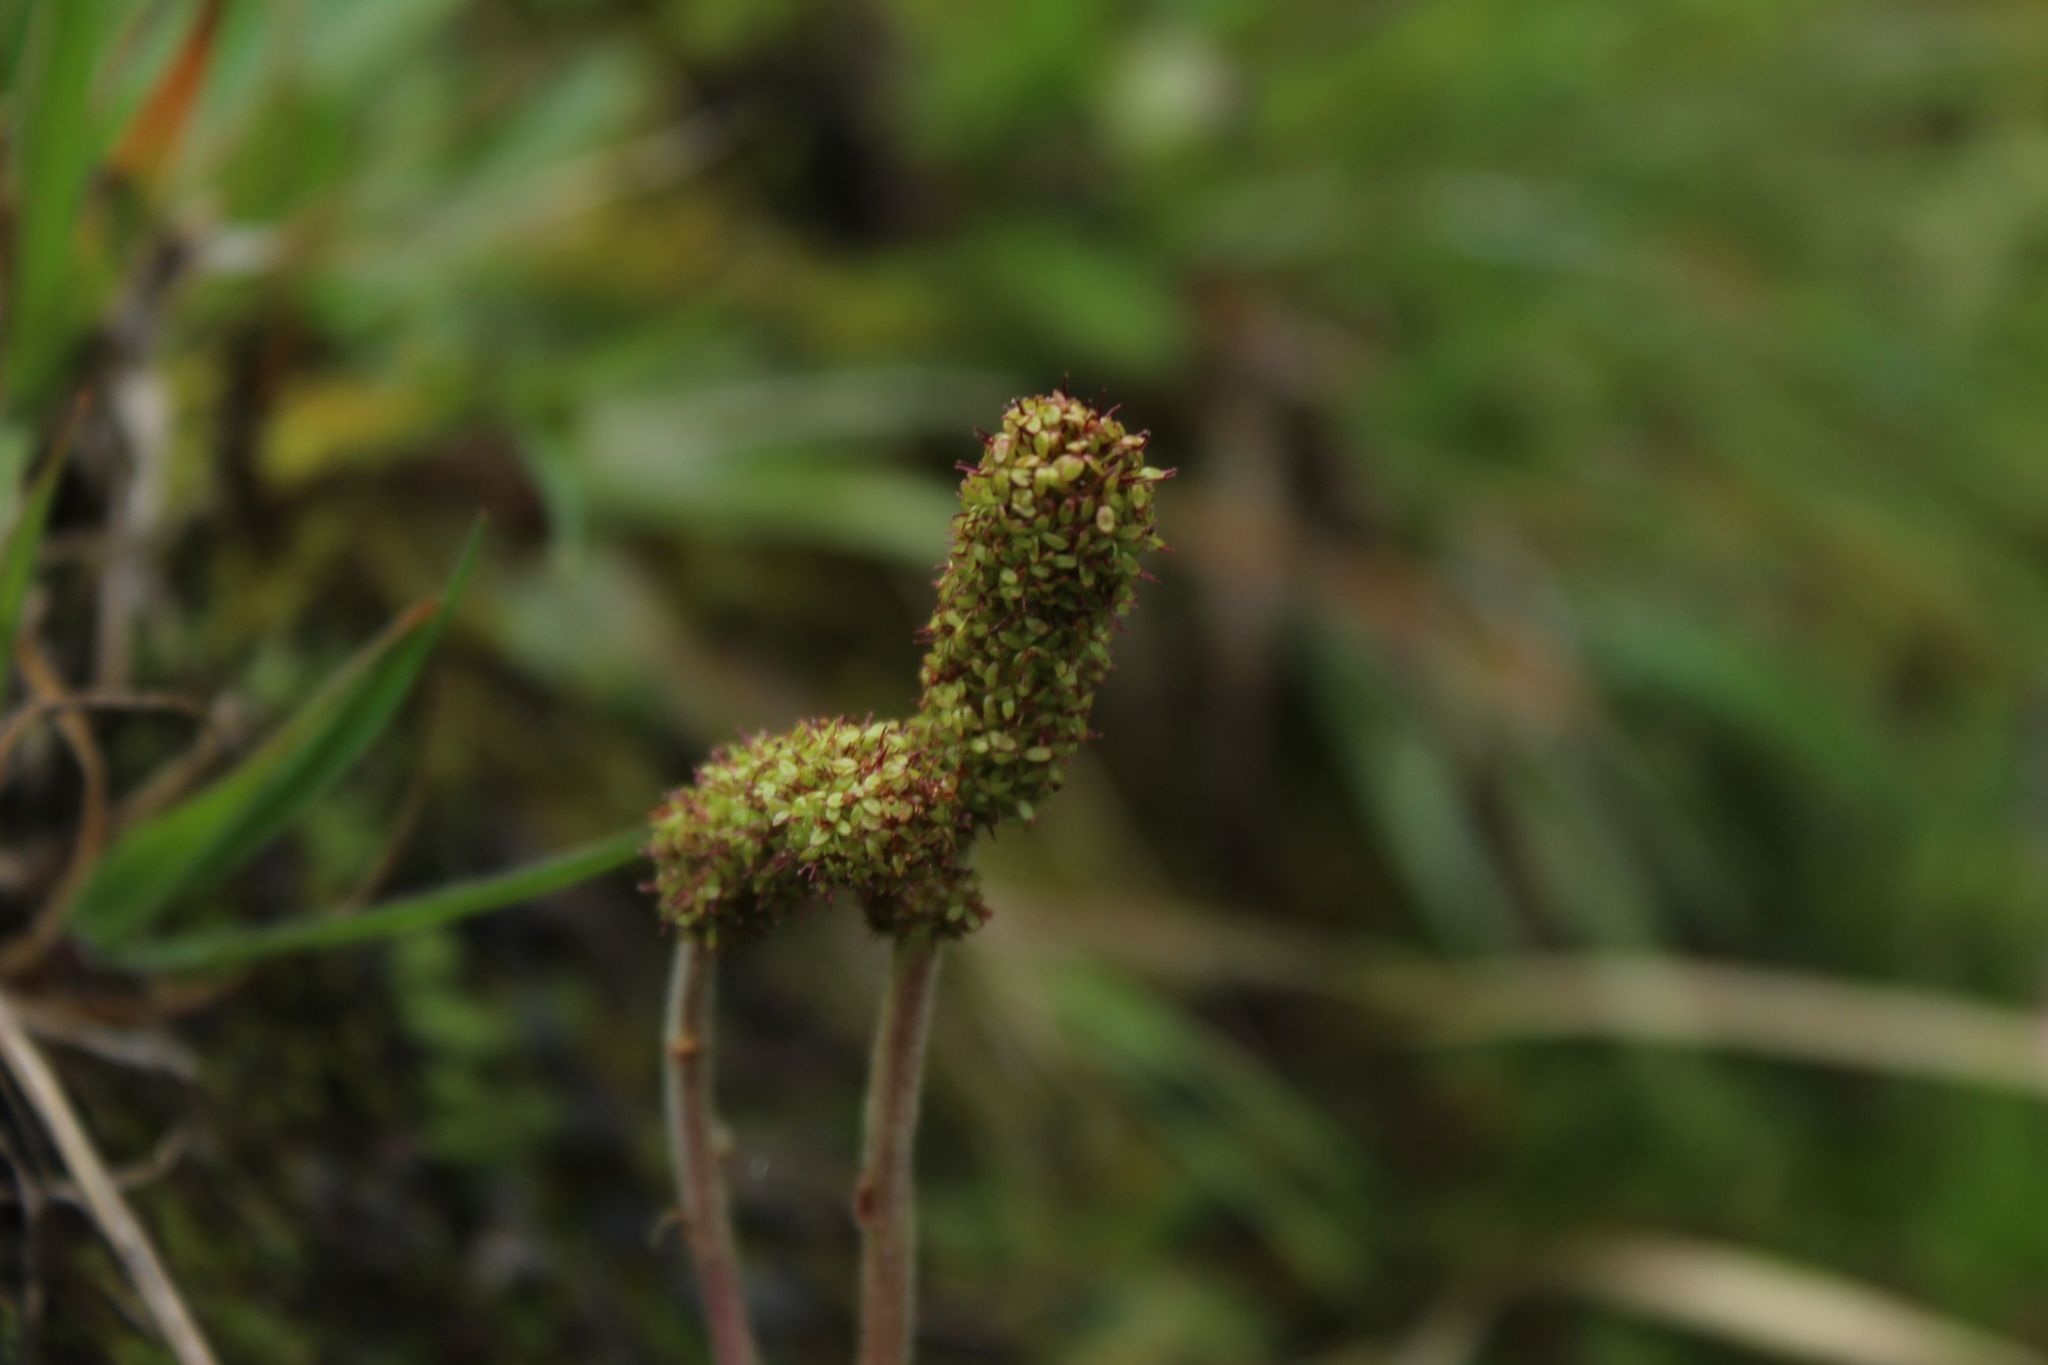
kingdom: Plantae
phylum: Tracheophyta
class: Magnoliopsida
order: Rosales
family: Rosaceae
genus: Acaena
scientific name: Acaena cylindristachya
